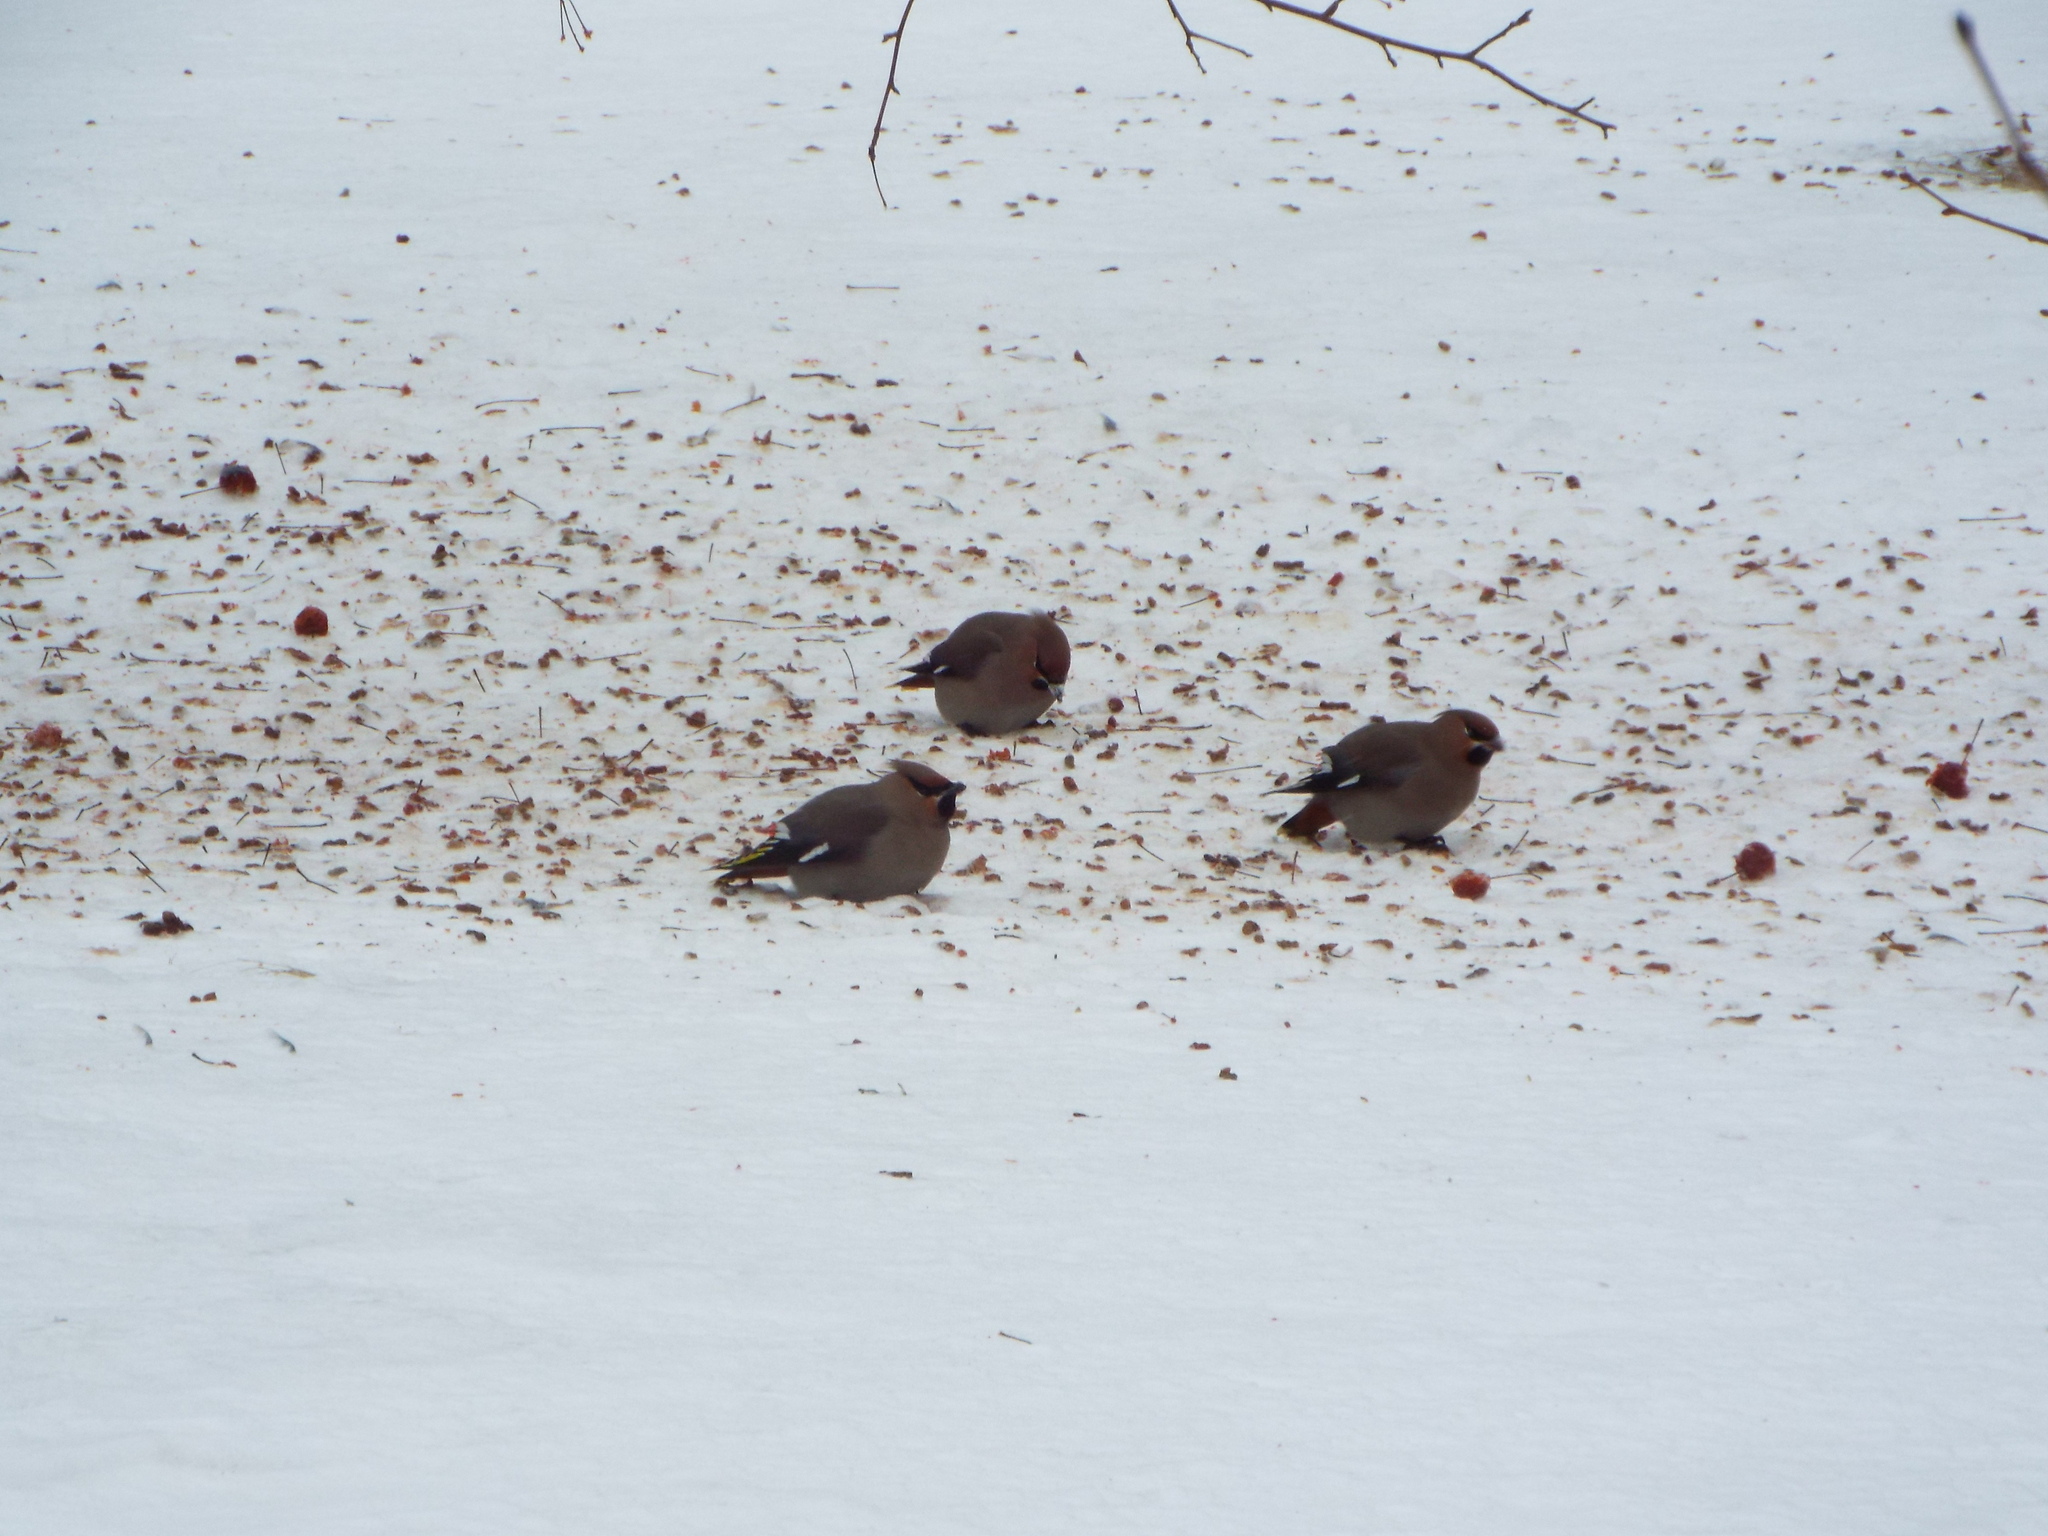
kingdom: Animalia
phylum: Chordata
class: Aves
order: Passeriformes
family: Bombycillidae
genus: Bombycilla
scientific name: Bombycilla garrulus
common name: Bohemian waxwing
